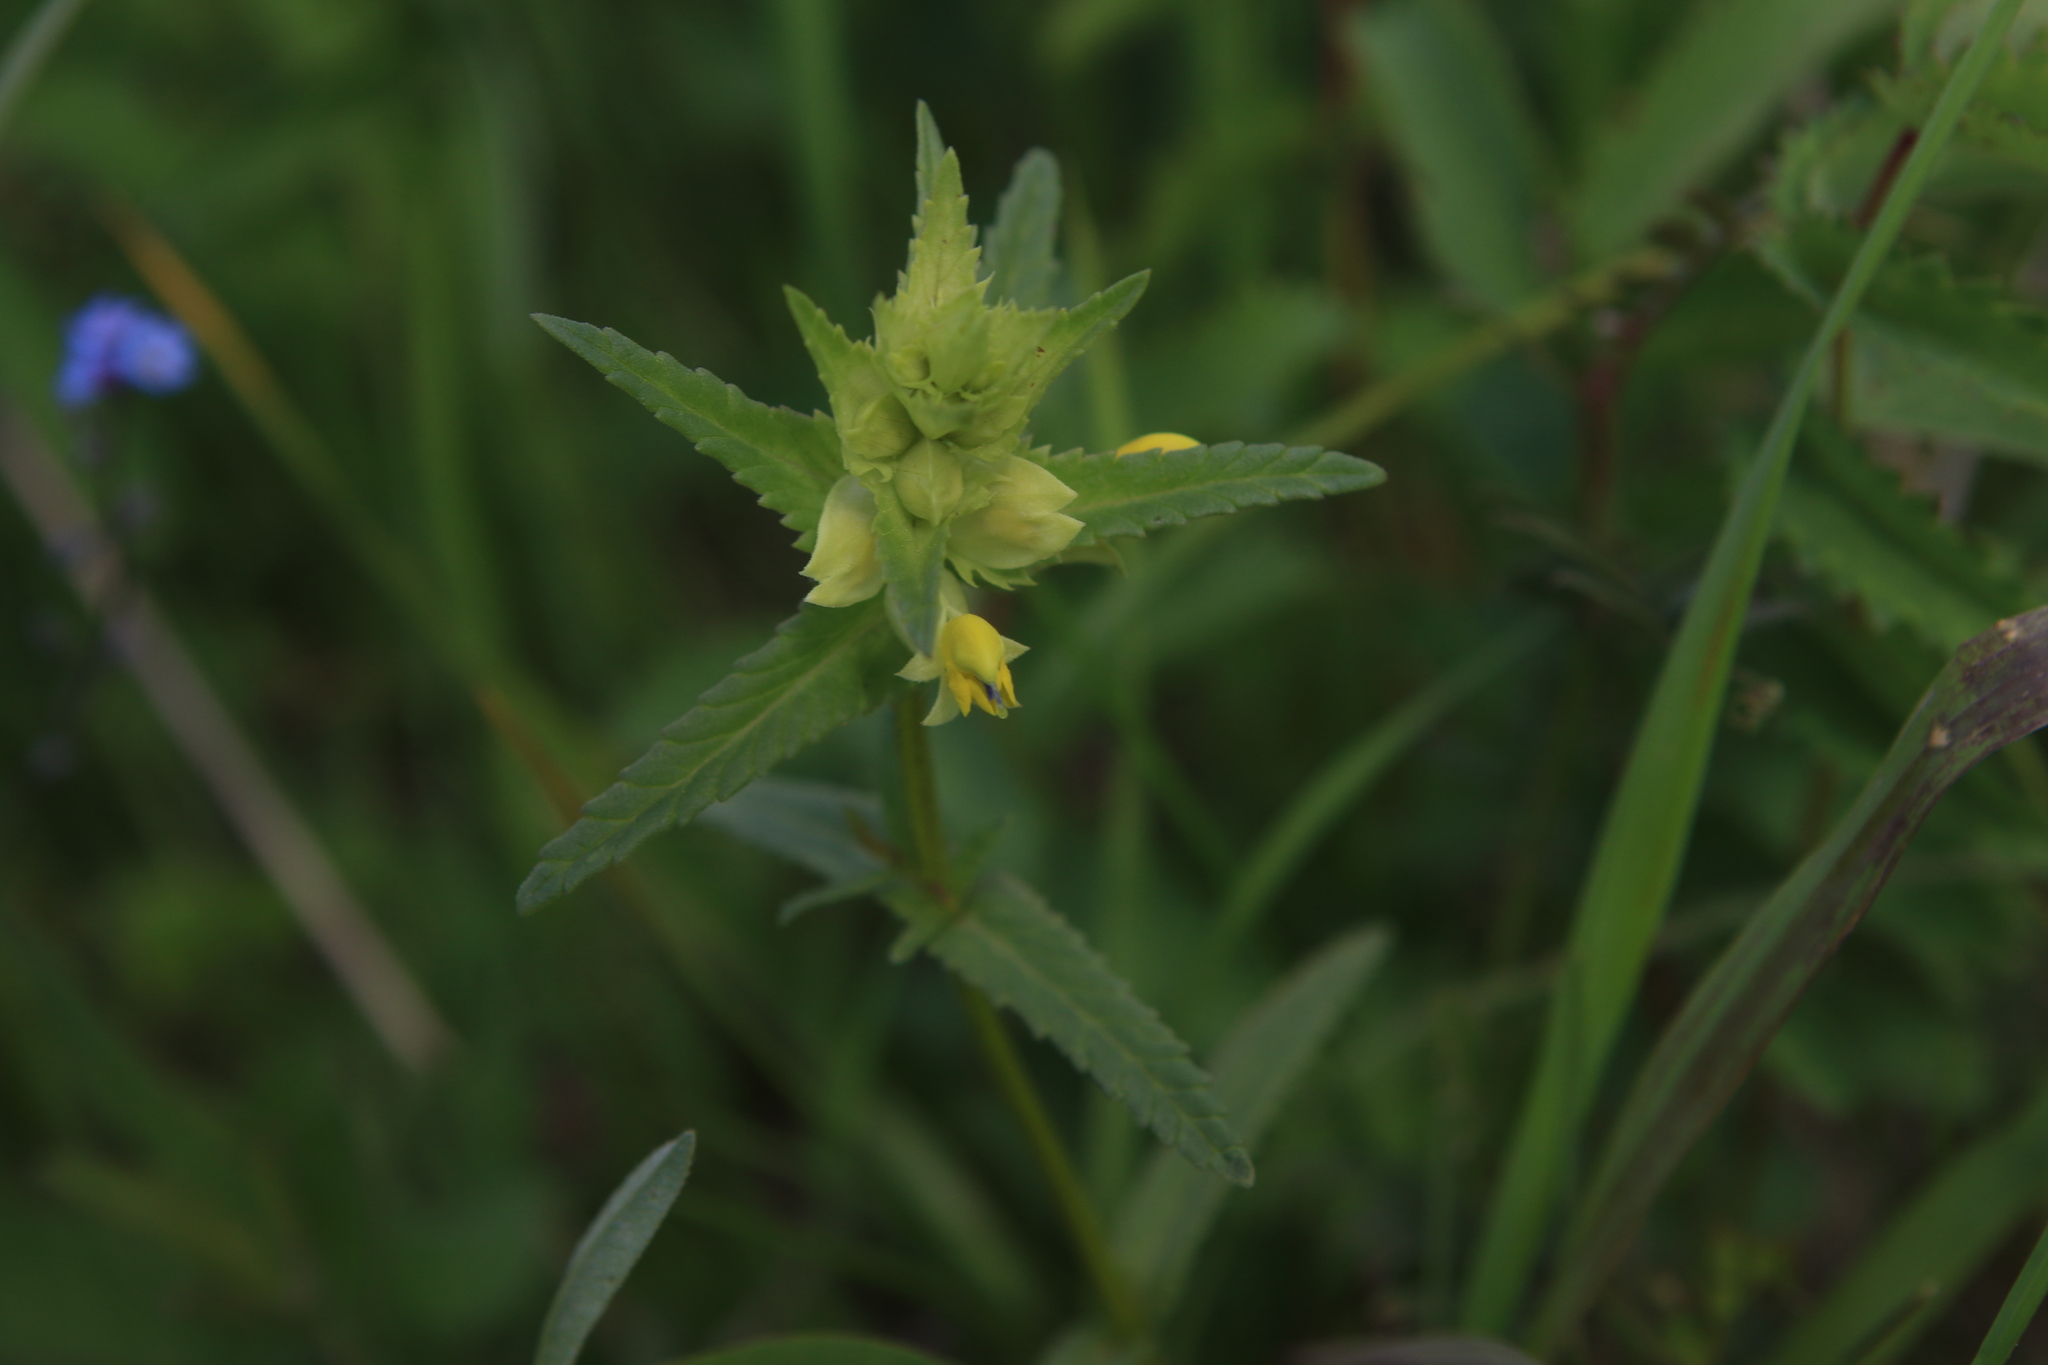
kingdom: Plantae
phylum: Tracheophyta
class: Magnoliopsida
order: Lamiales
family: Orobanchaceae
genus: Rhinanthus
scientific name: Rhinanthus serotinus
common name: Late-flowering yellow rattle
